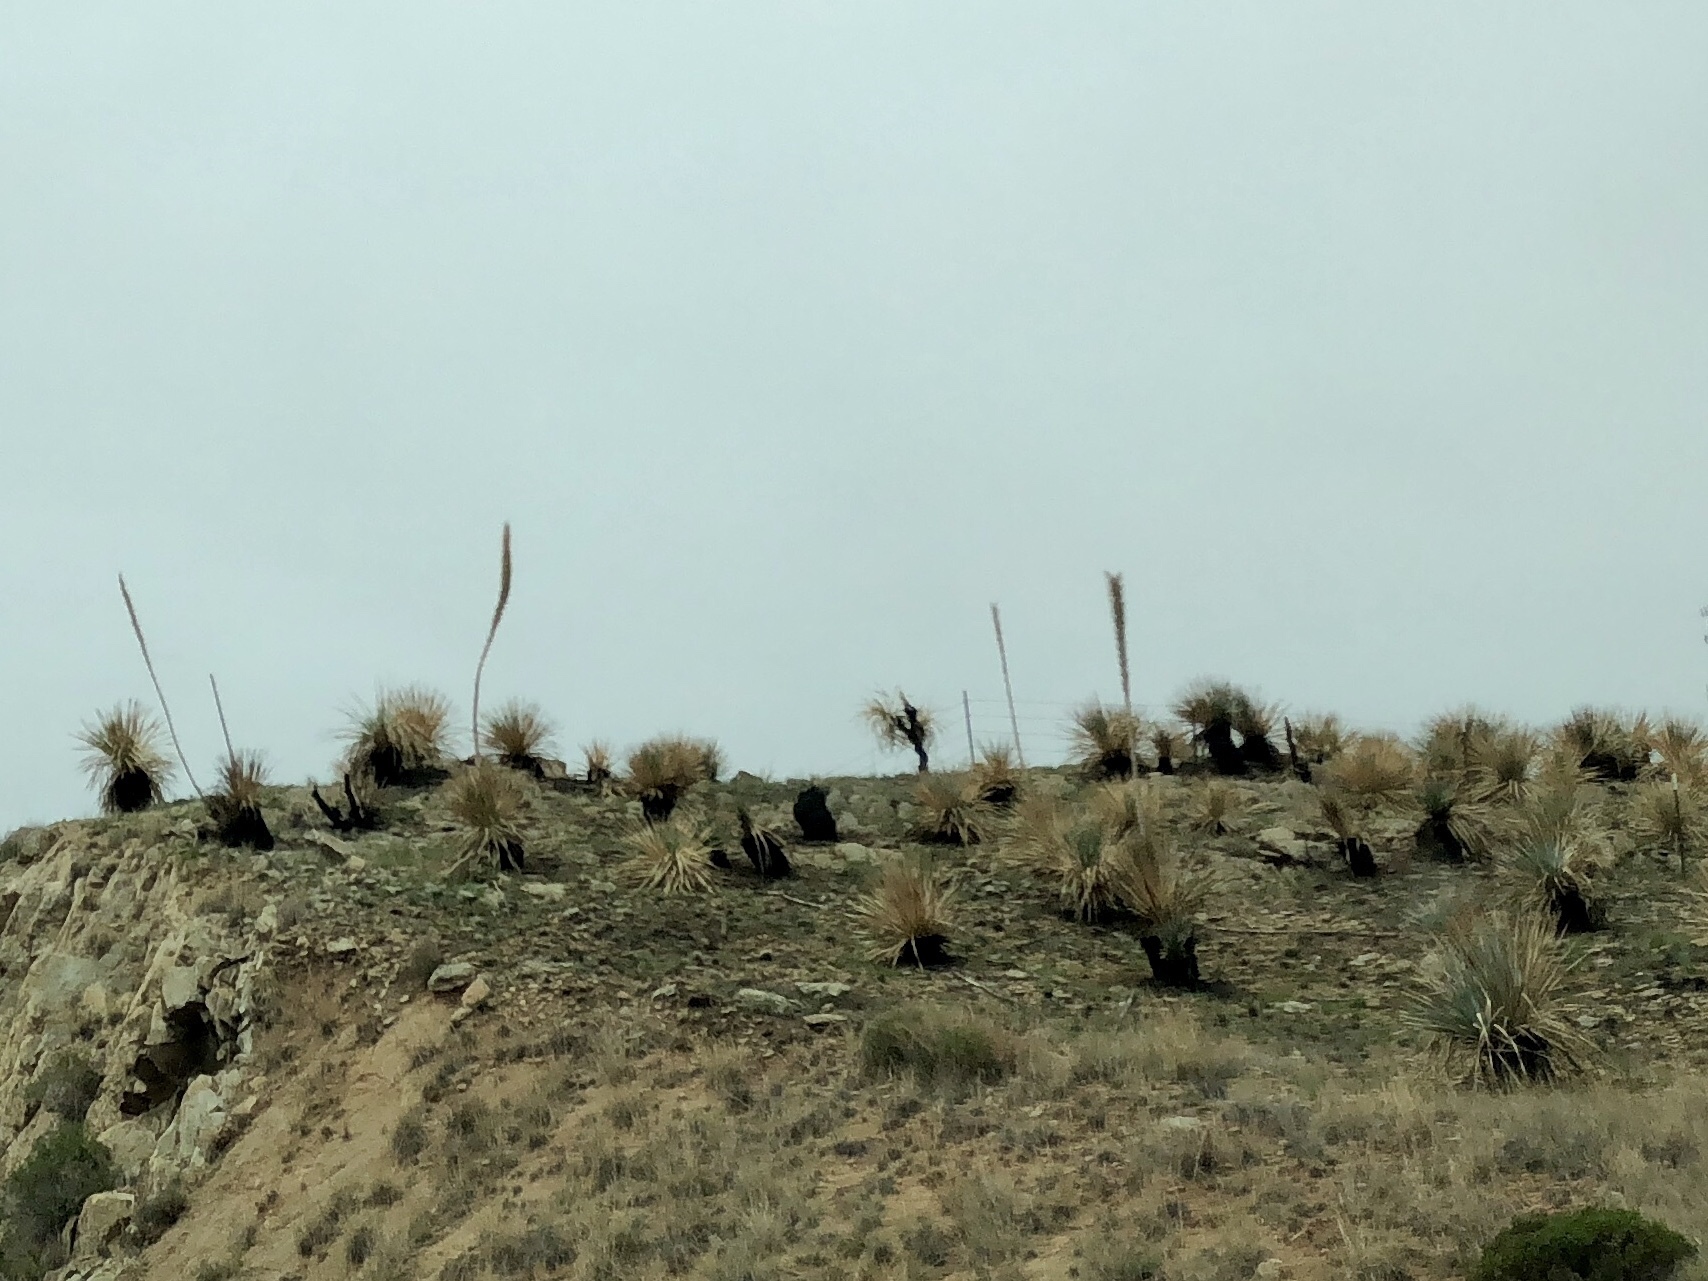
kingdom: Plantae
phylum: Tracheophyta
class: Liliopsida
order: Asparagales
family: Asparagaceae
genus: Dasylirion
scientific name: Dasylirion wheeleri
